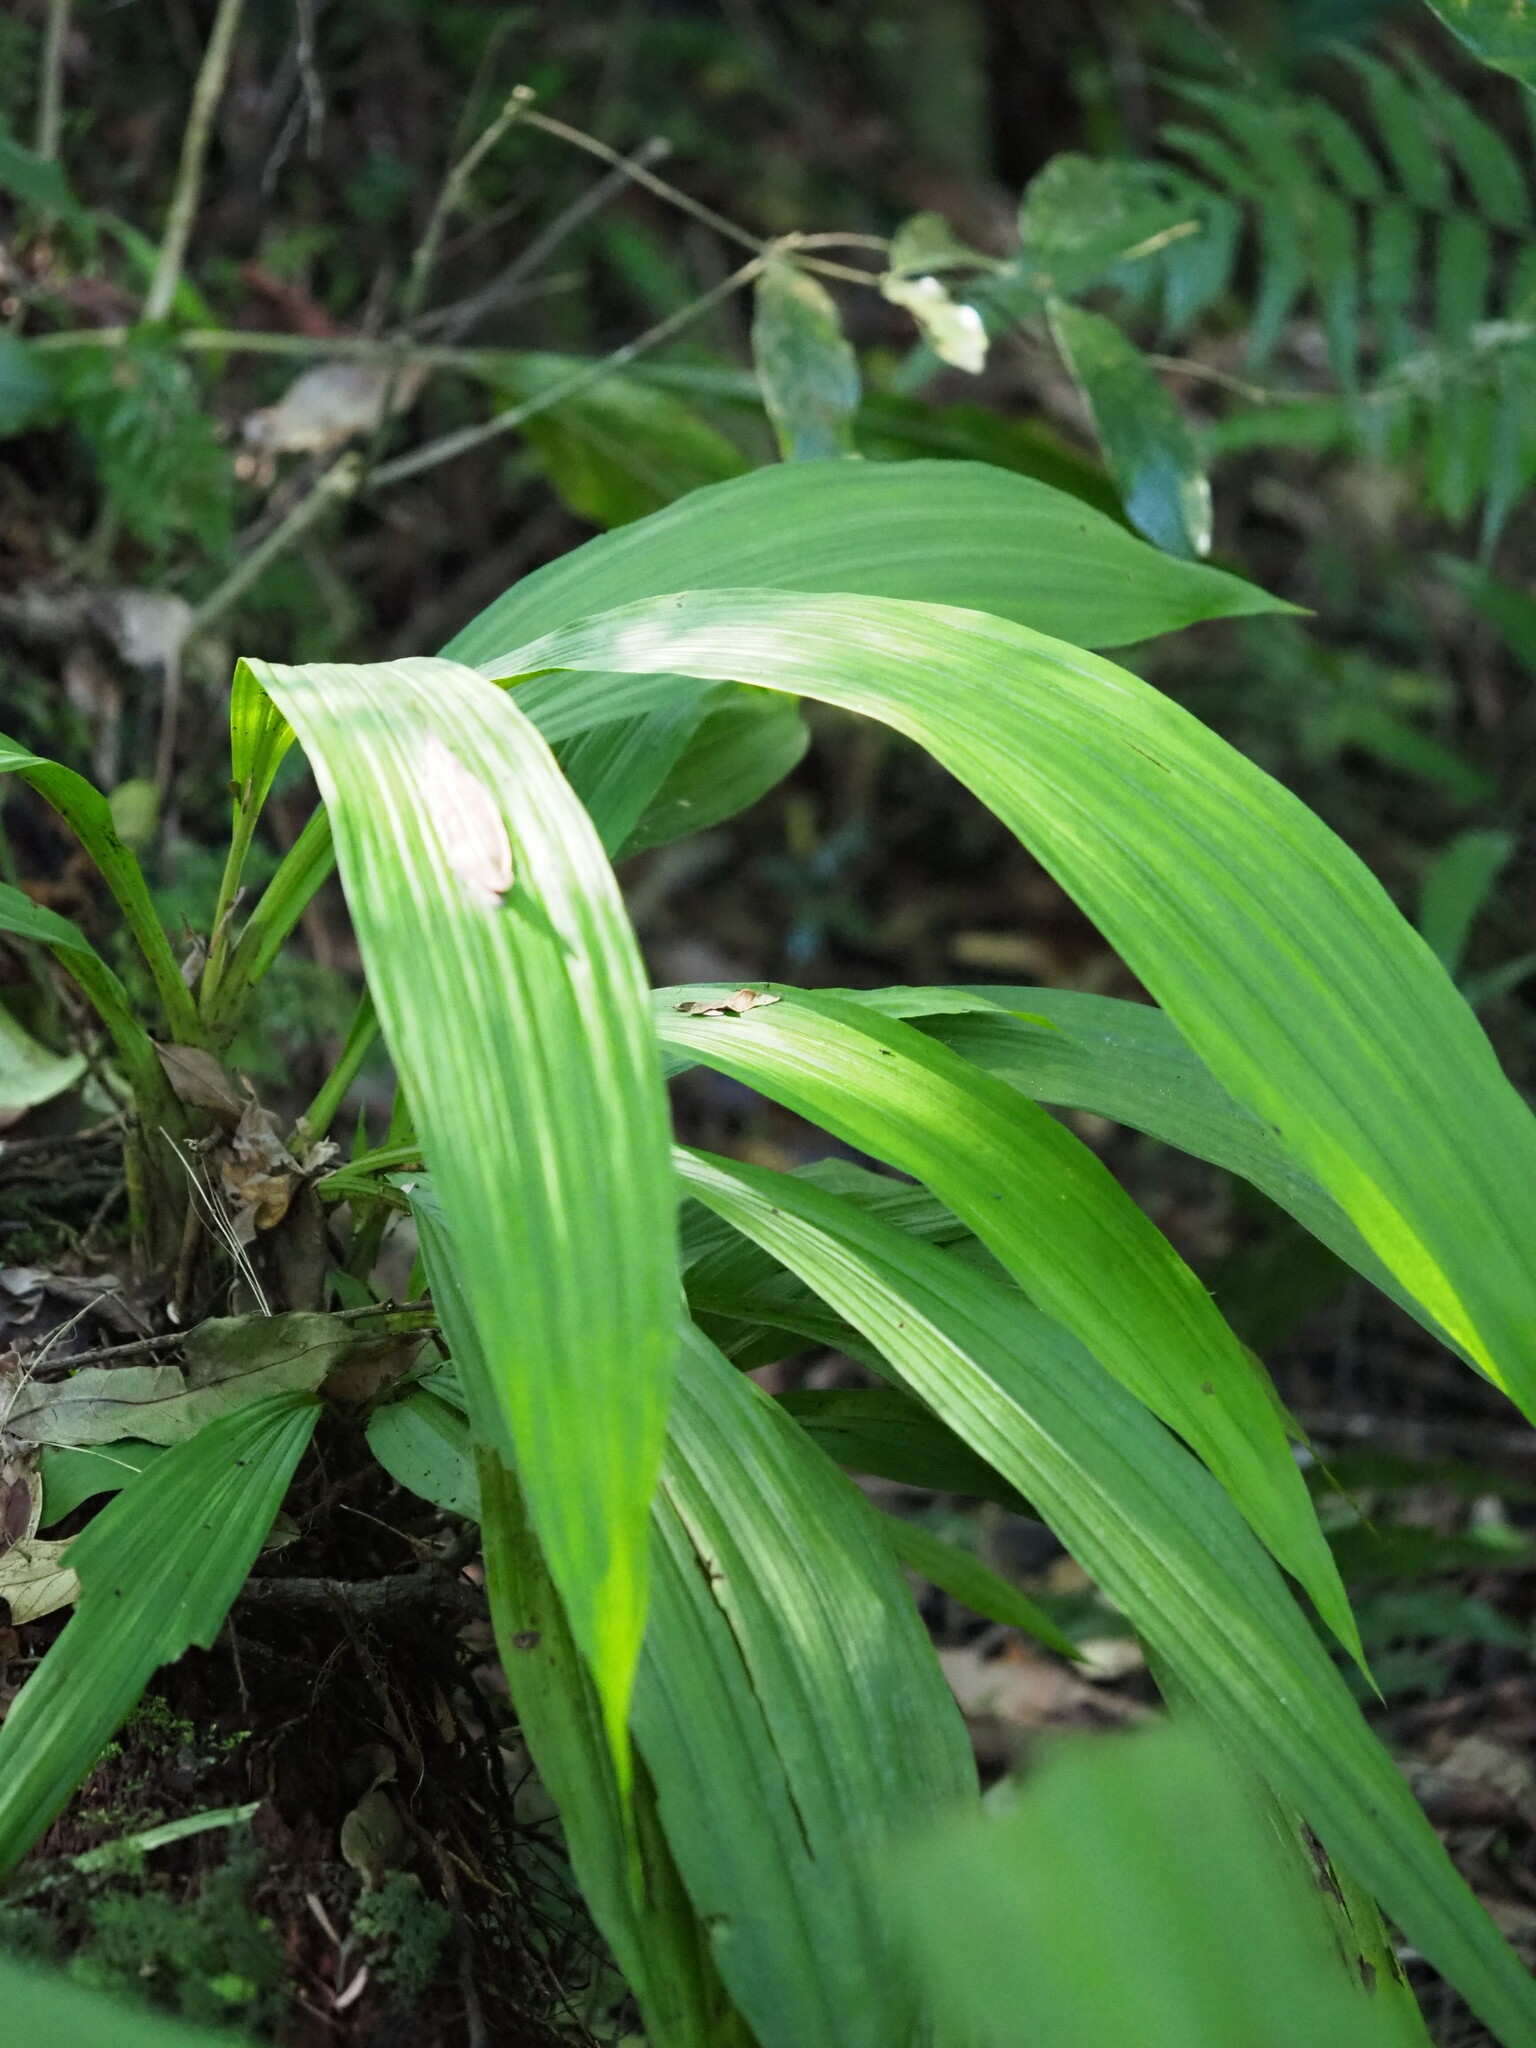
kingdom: Plantae
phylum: Tracheophyta
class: Liliopsida
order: Asparagales
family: Orchidaceae
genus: Calanthe
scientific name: Calanthe formosana
